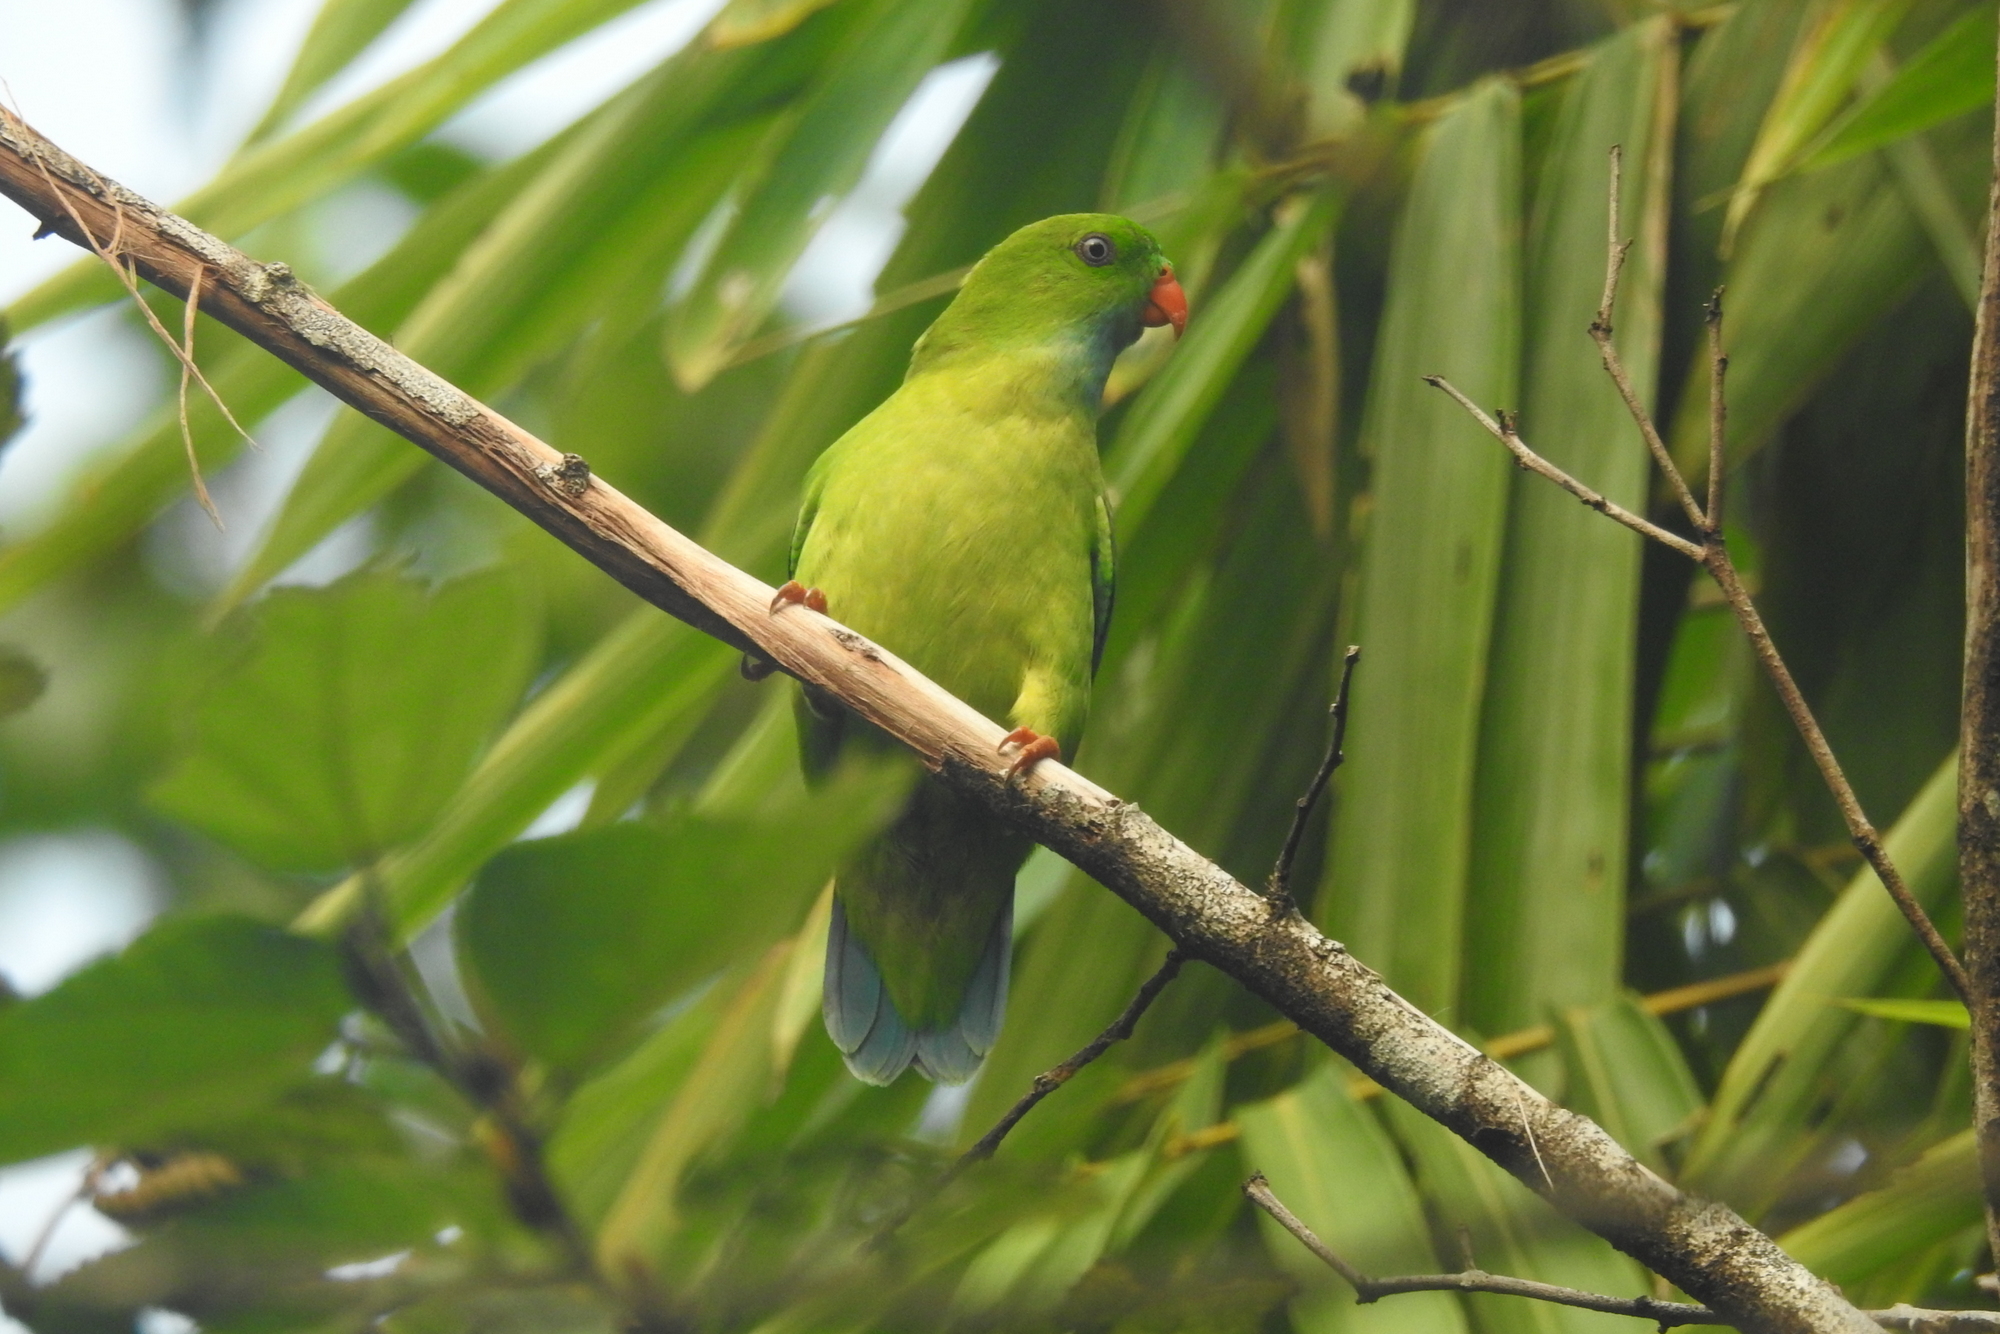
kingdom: Animalia
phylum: Chordata
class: Aves
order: Psittaciformes
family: Psittacidae
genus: Loriculus
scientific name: Loriculus vernalis
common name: Vernal hanging parrot
